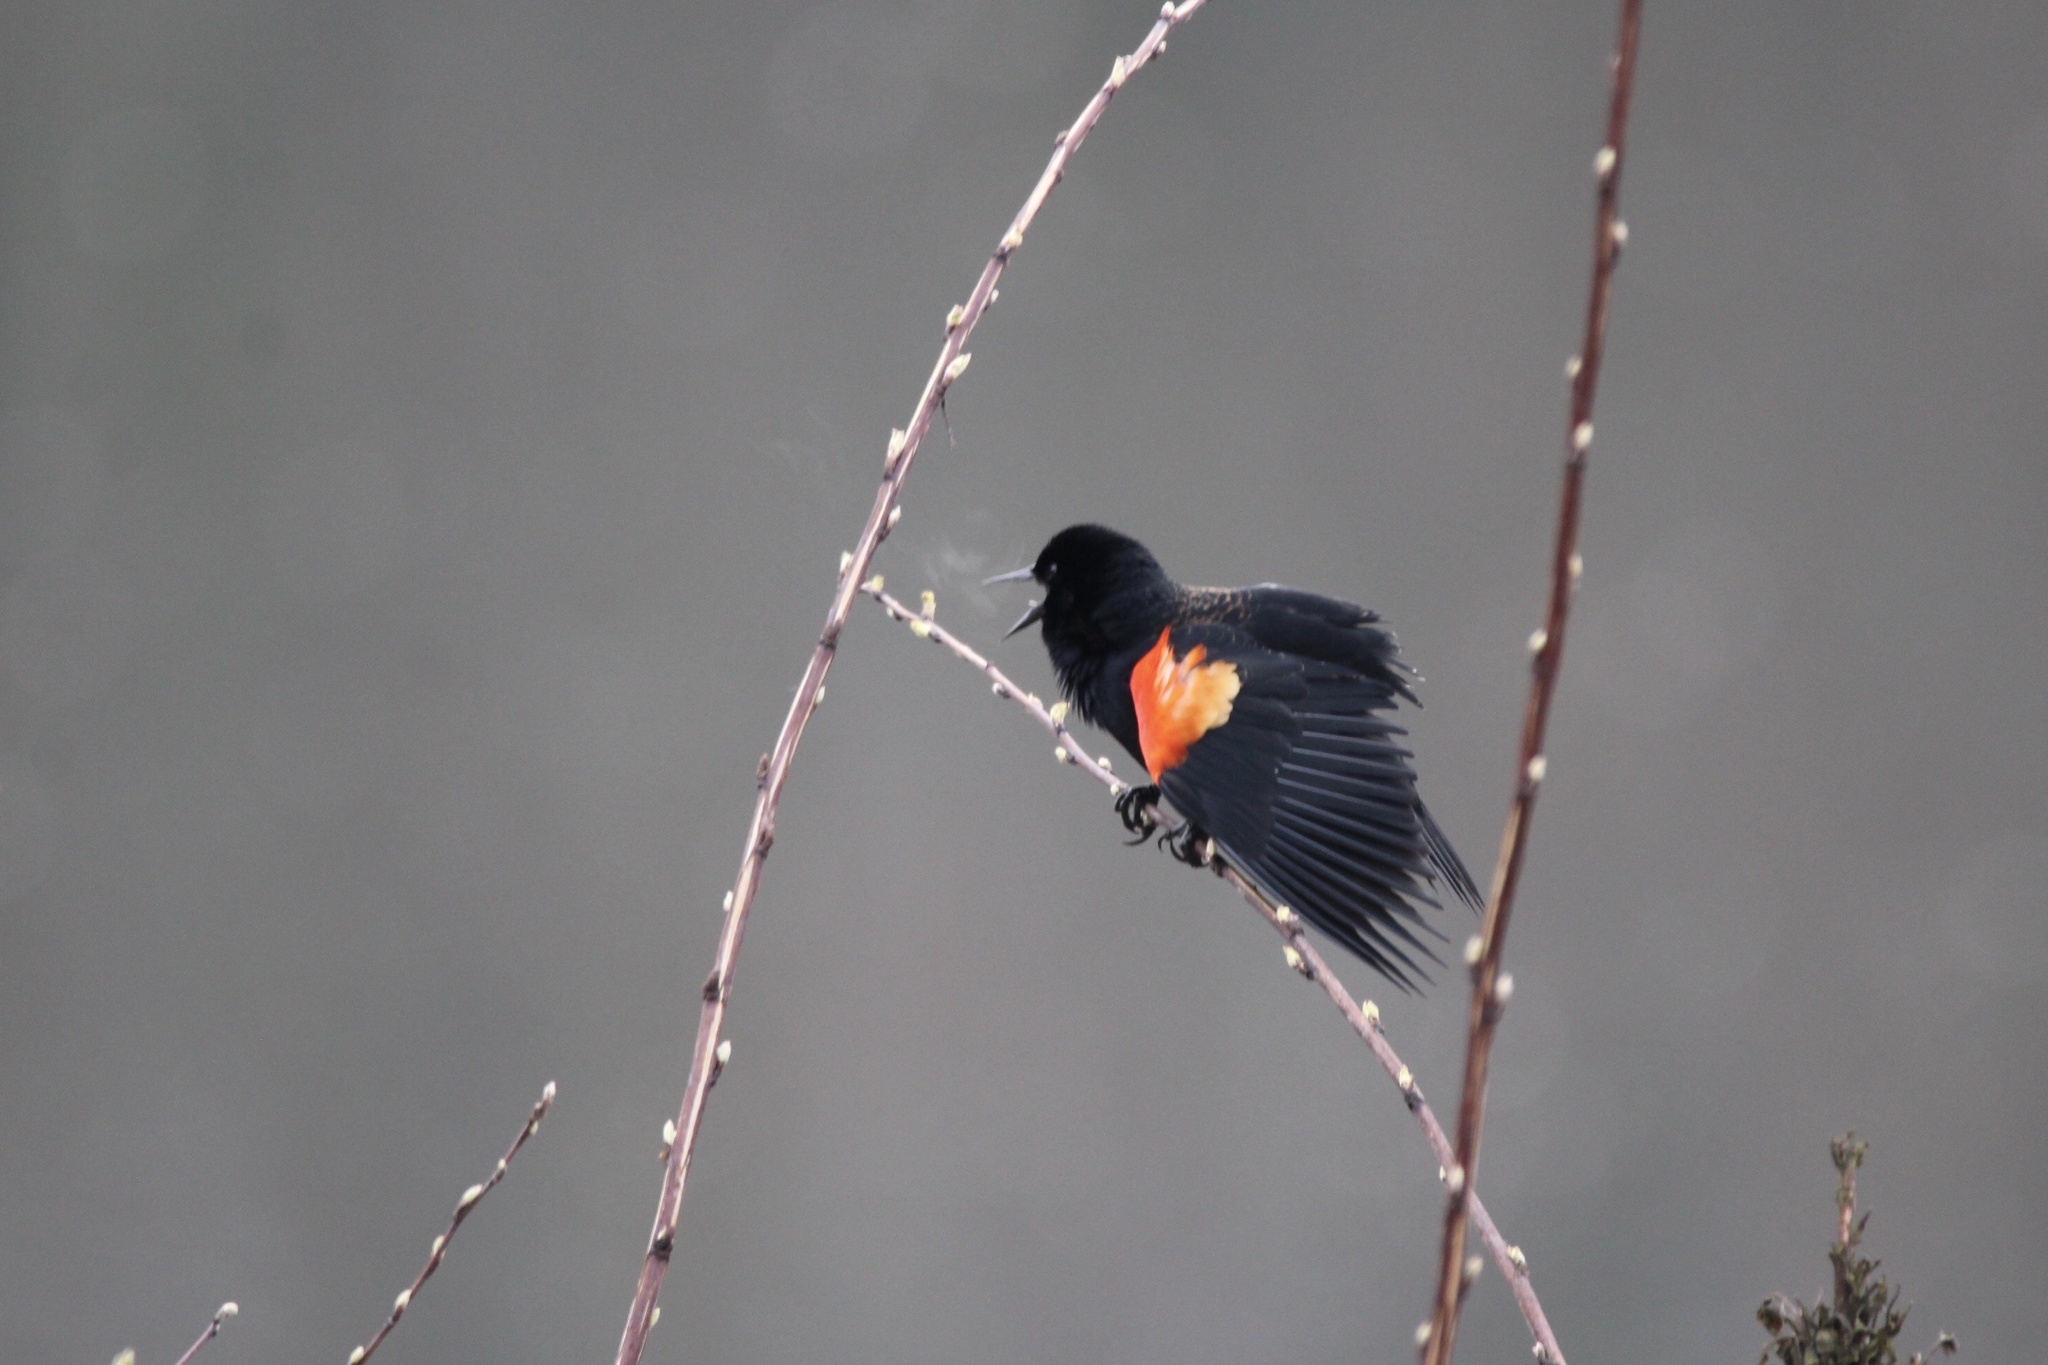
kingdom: Animalia
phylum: Chordata
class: Aves
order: Passeriformes
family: Icteridae
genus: Agelaius
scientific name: Agelaius phoeniceus
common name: Red-winged blackbird
